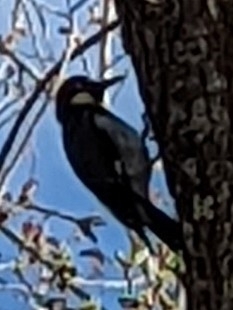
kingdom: Animalia
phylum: Chordata
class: Aves
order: Piciformes
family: Picidae
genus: Melanerpes
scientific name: Melanerpes formicivorus
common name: Acorn woodpecker
